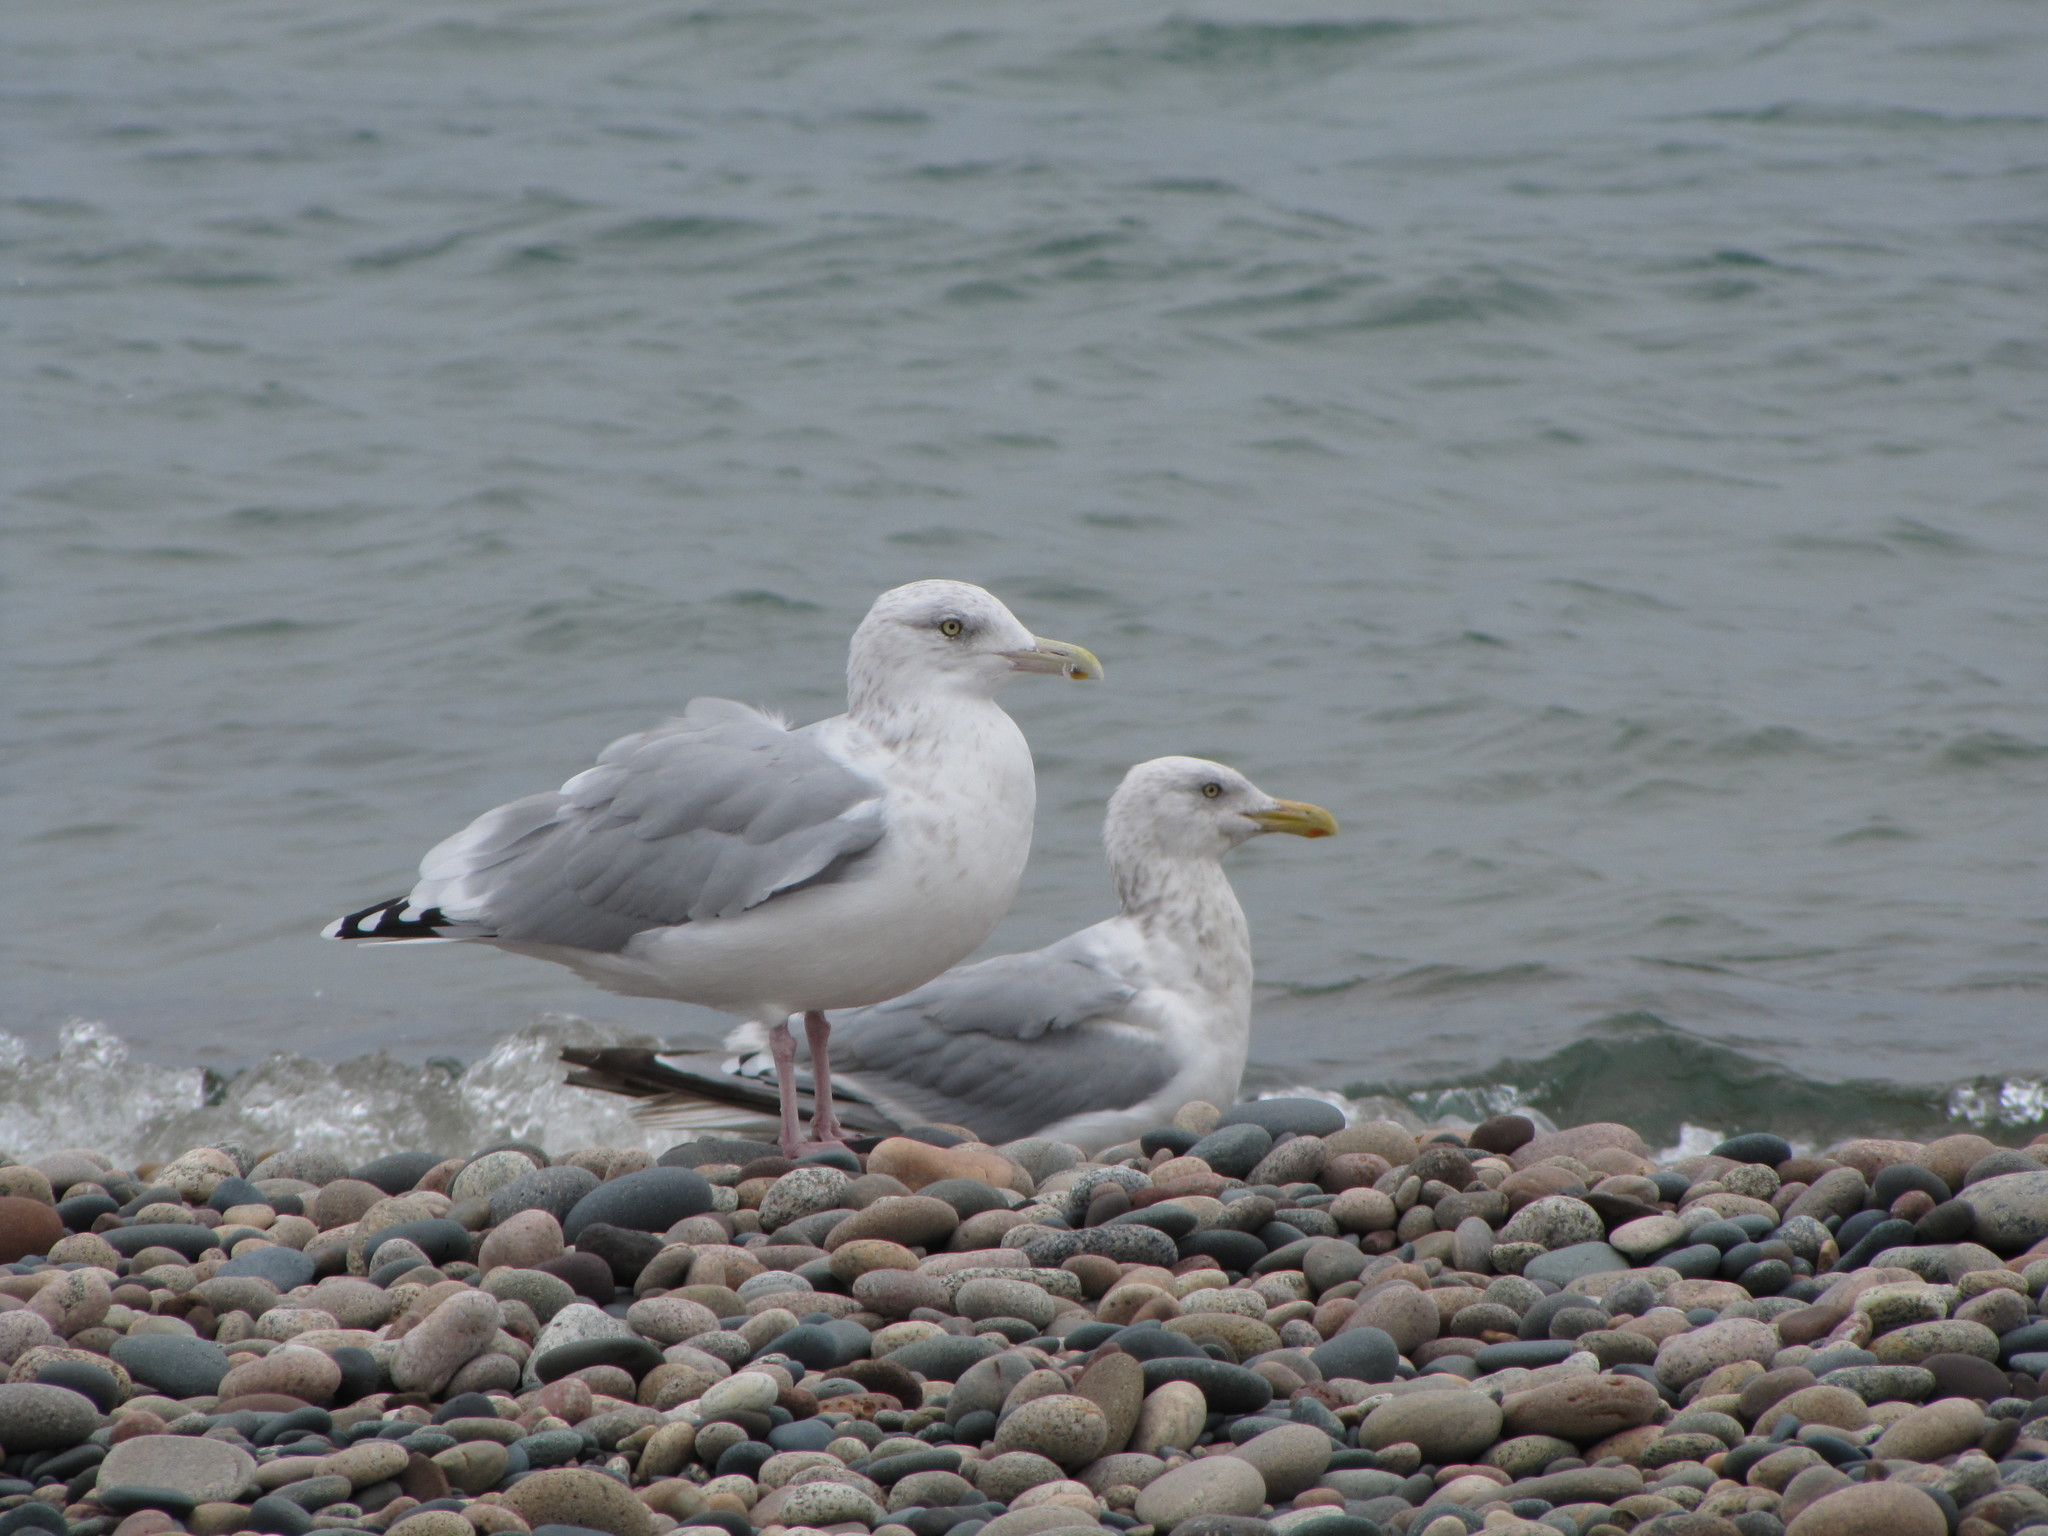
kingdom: Animalia
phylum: Chordata
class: Aves
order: Charadriiformes
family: Laridae
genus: Larus
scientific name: Larus argentatus
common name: Herring gull
